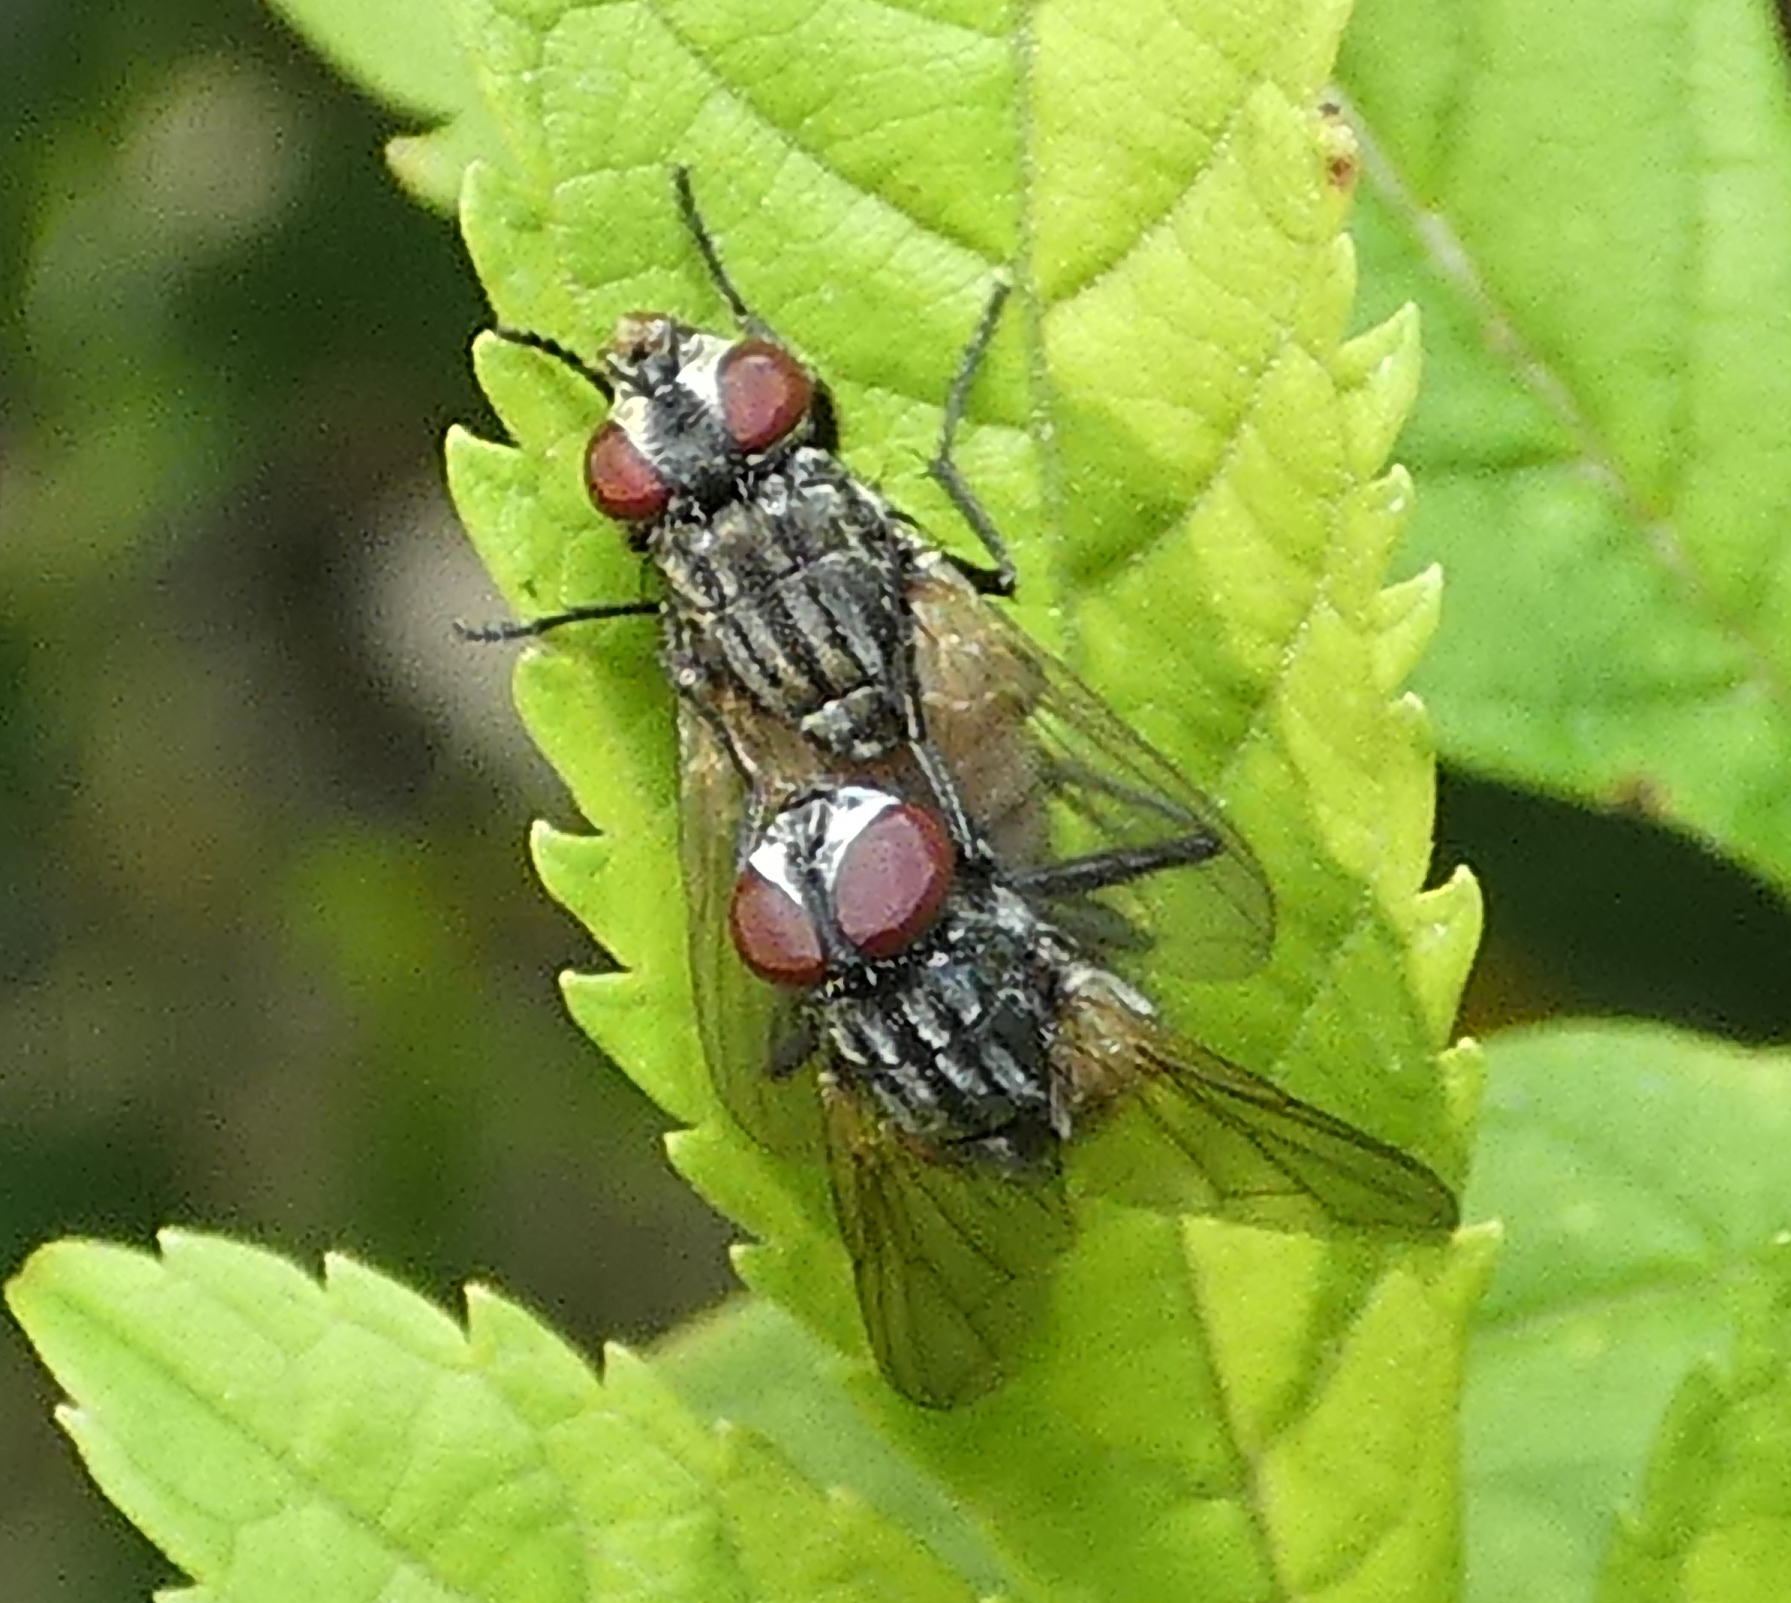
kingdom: Animalia
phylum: Arthropoda
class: Insecta
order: Diptera
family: Muscidae
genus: Musca
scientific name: Musca domestica
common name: House fly
